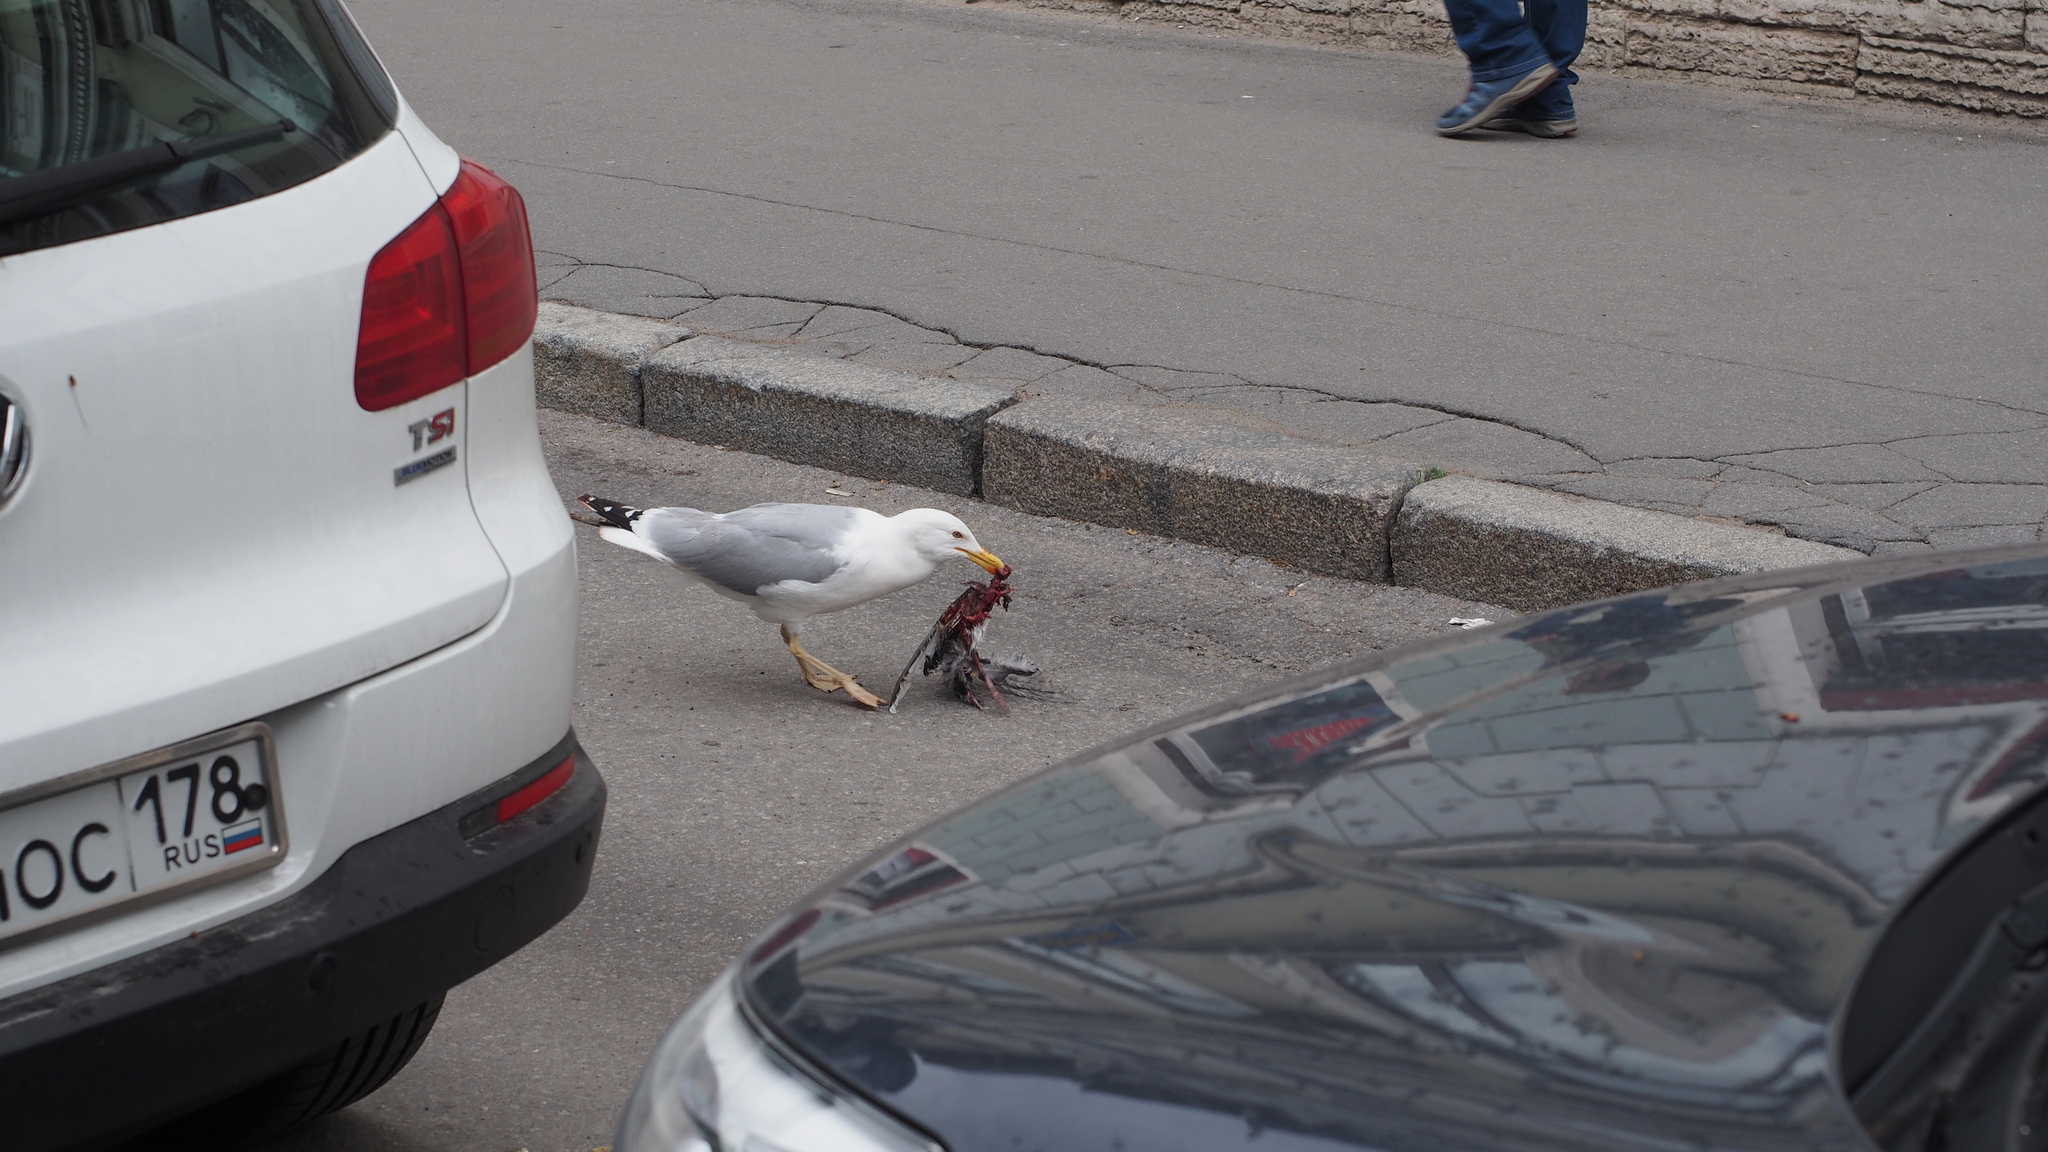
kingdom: Animalia
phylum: Chordata
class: Aves
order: Charadriiformes
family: Laridae
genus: Larus
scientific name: Larus argentatus
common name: Herring gull
